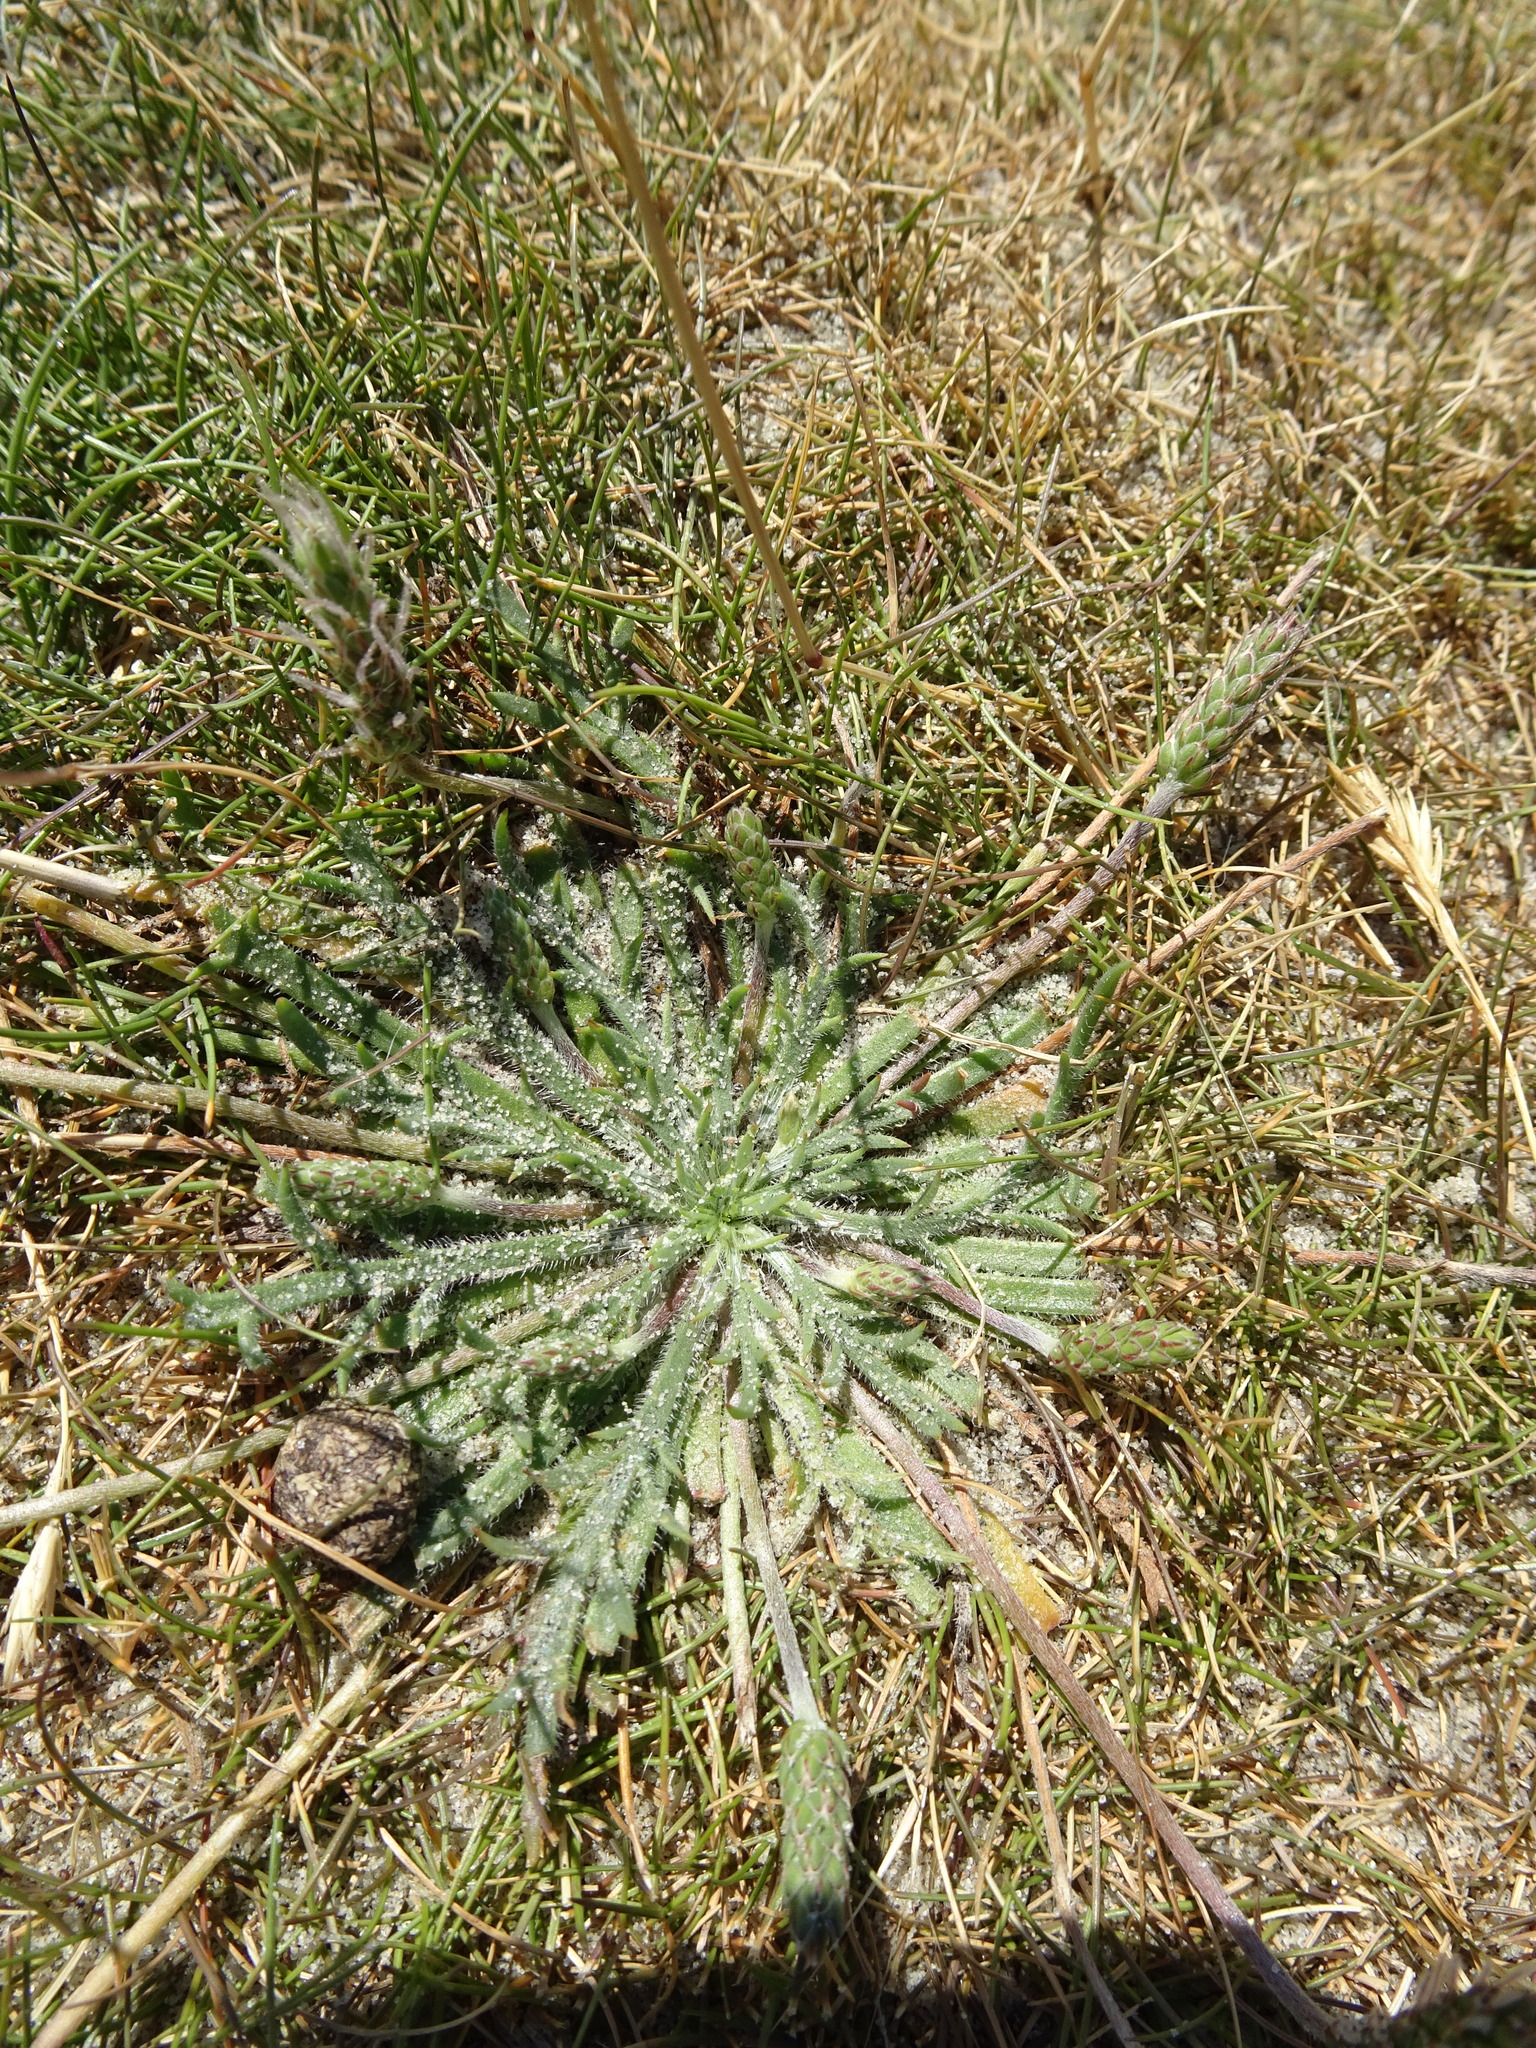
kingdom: Plantae
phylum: Tracheophyta
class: Magnoliopsida
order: Lamiales
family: Plantaginaceae
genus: Plantago
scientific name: Plantago coronopus
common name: Buck's-horn plantain
